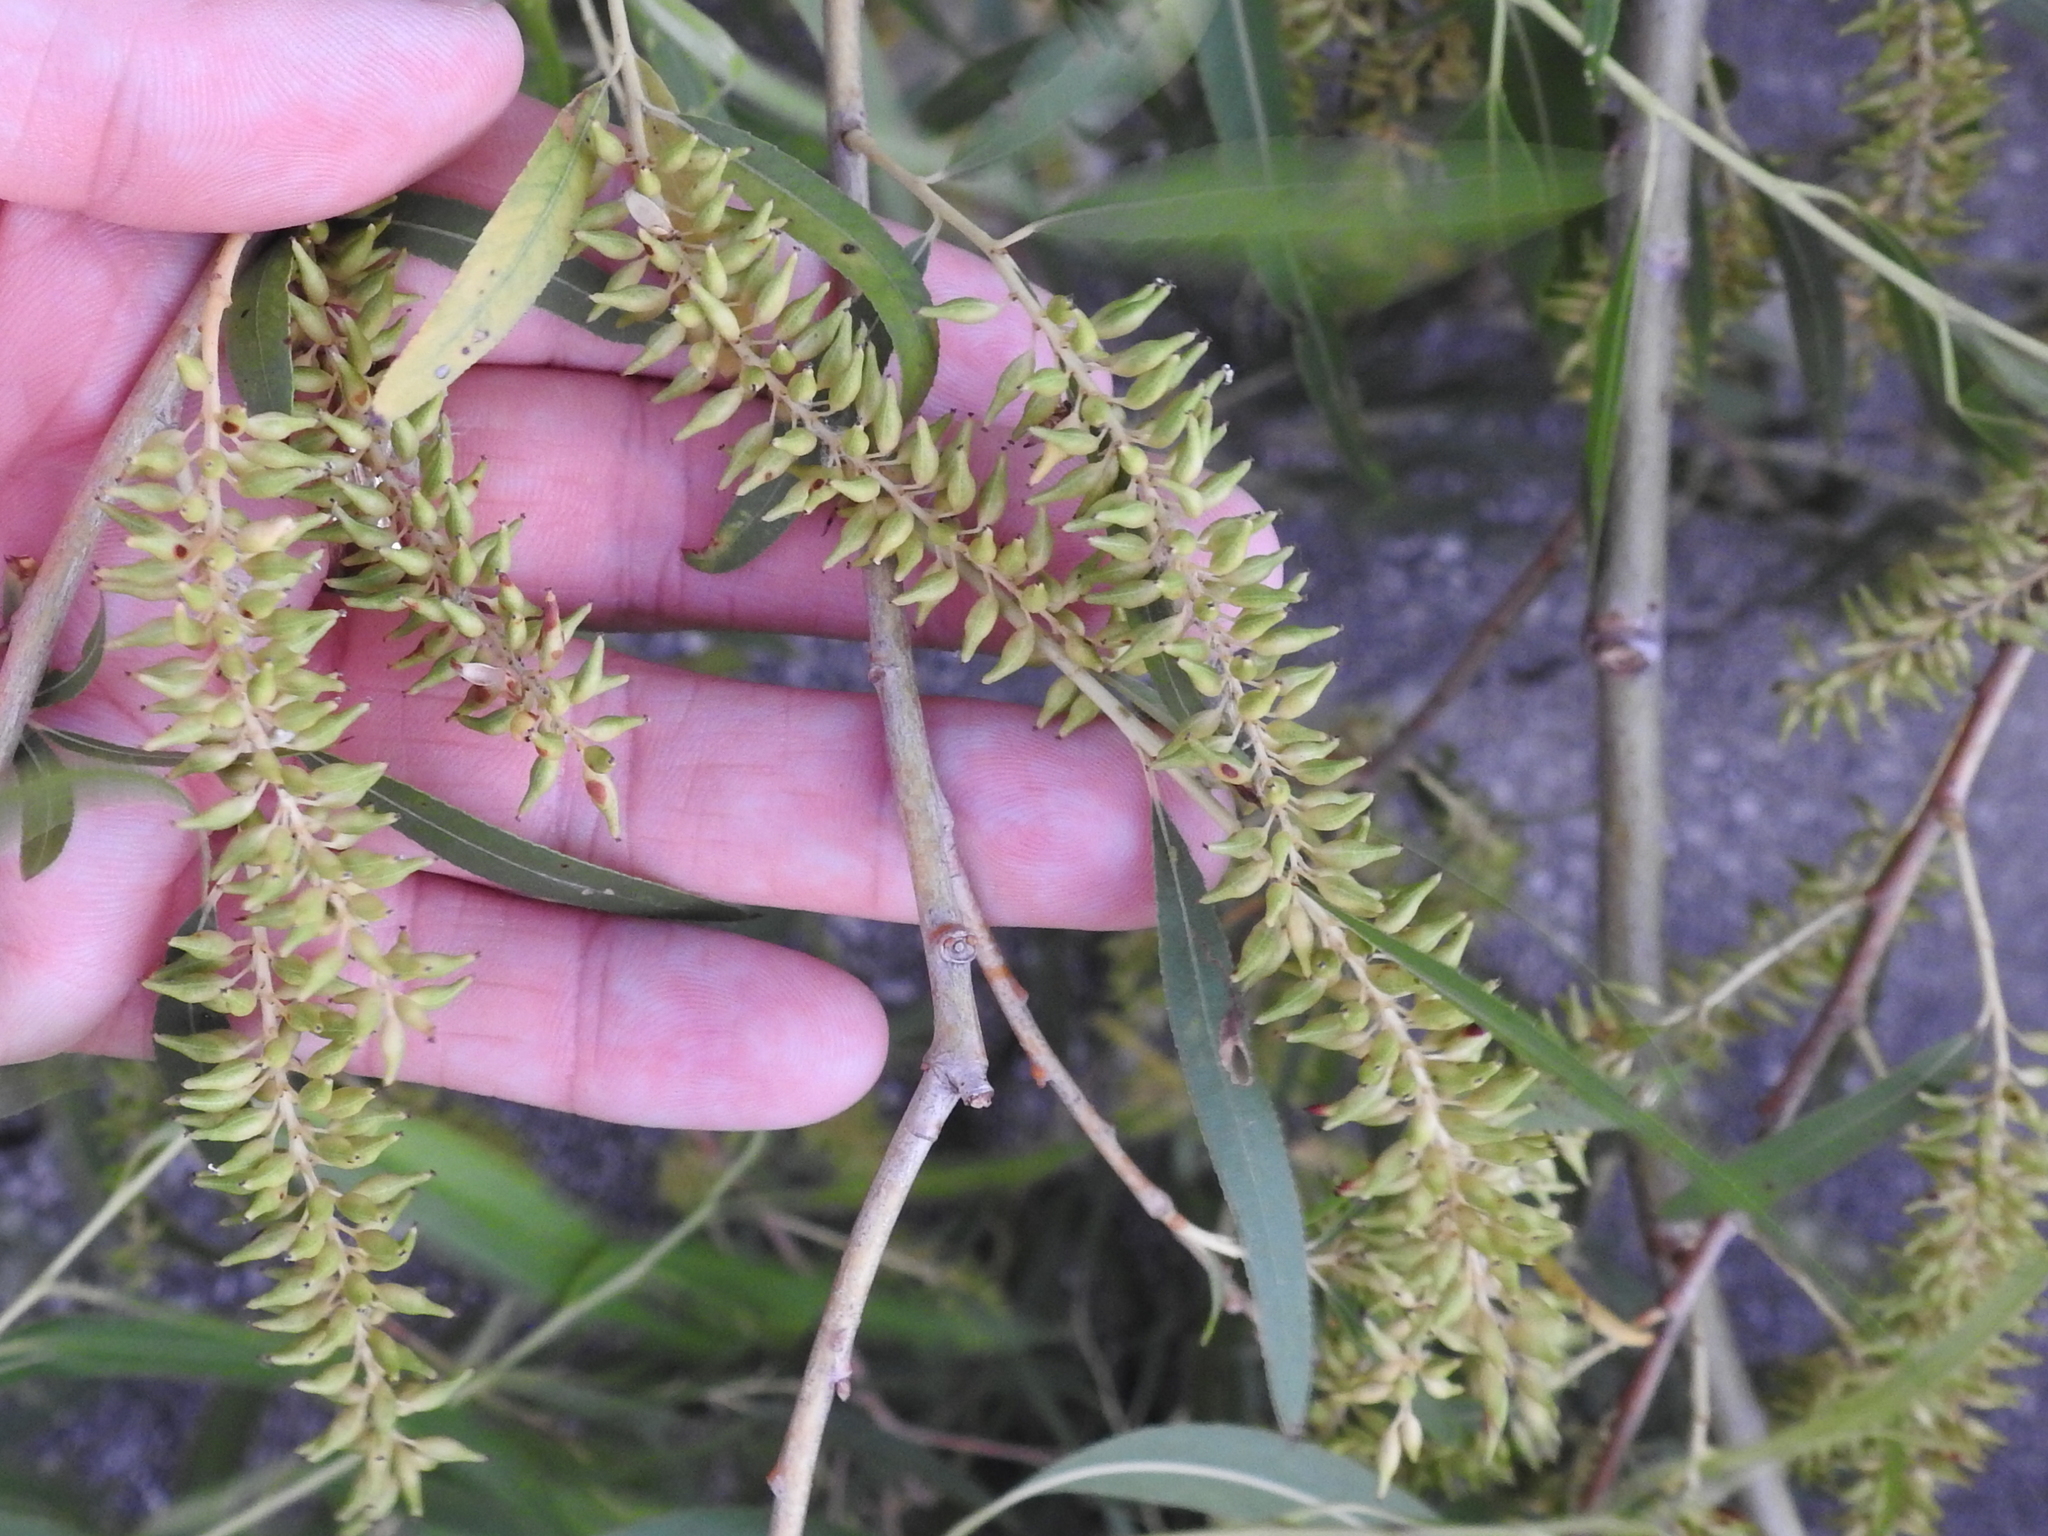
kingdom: Plantae
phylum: Tracheophyta
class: Magnoliopsida
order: Malpighiales
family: Salicaceae
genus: Salix
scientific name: Salix nigra
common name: Black willow
